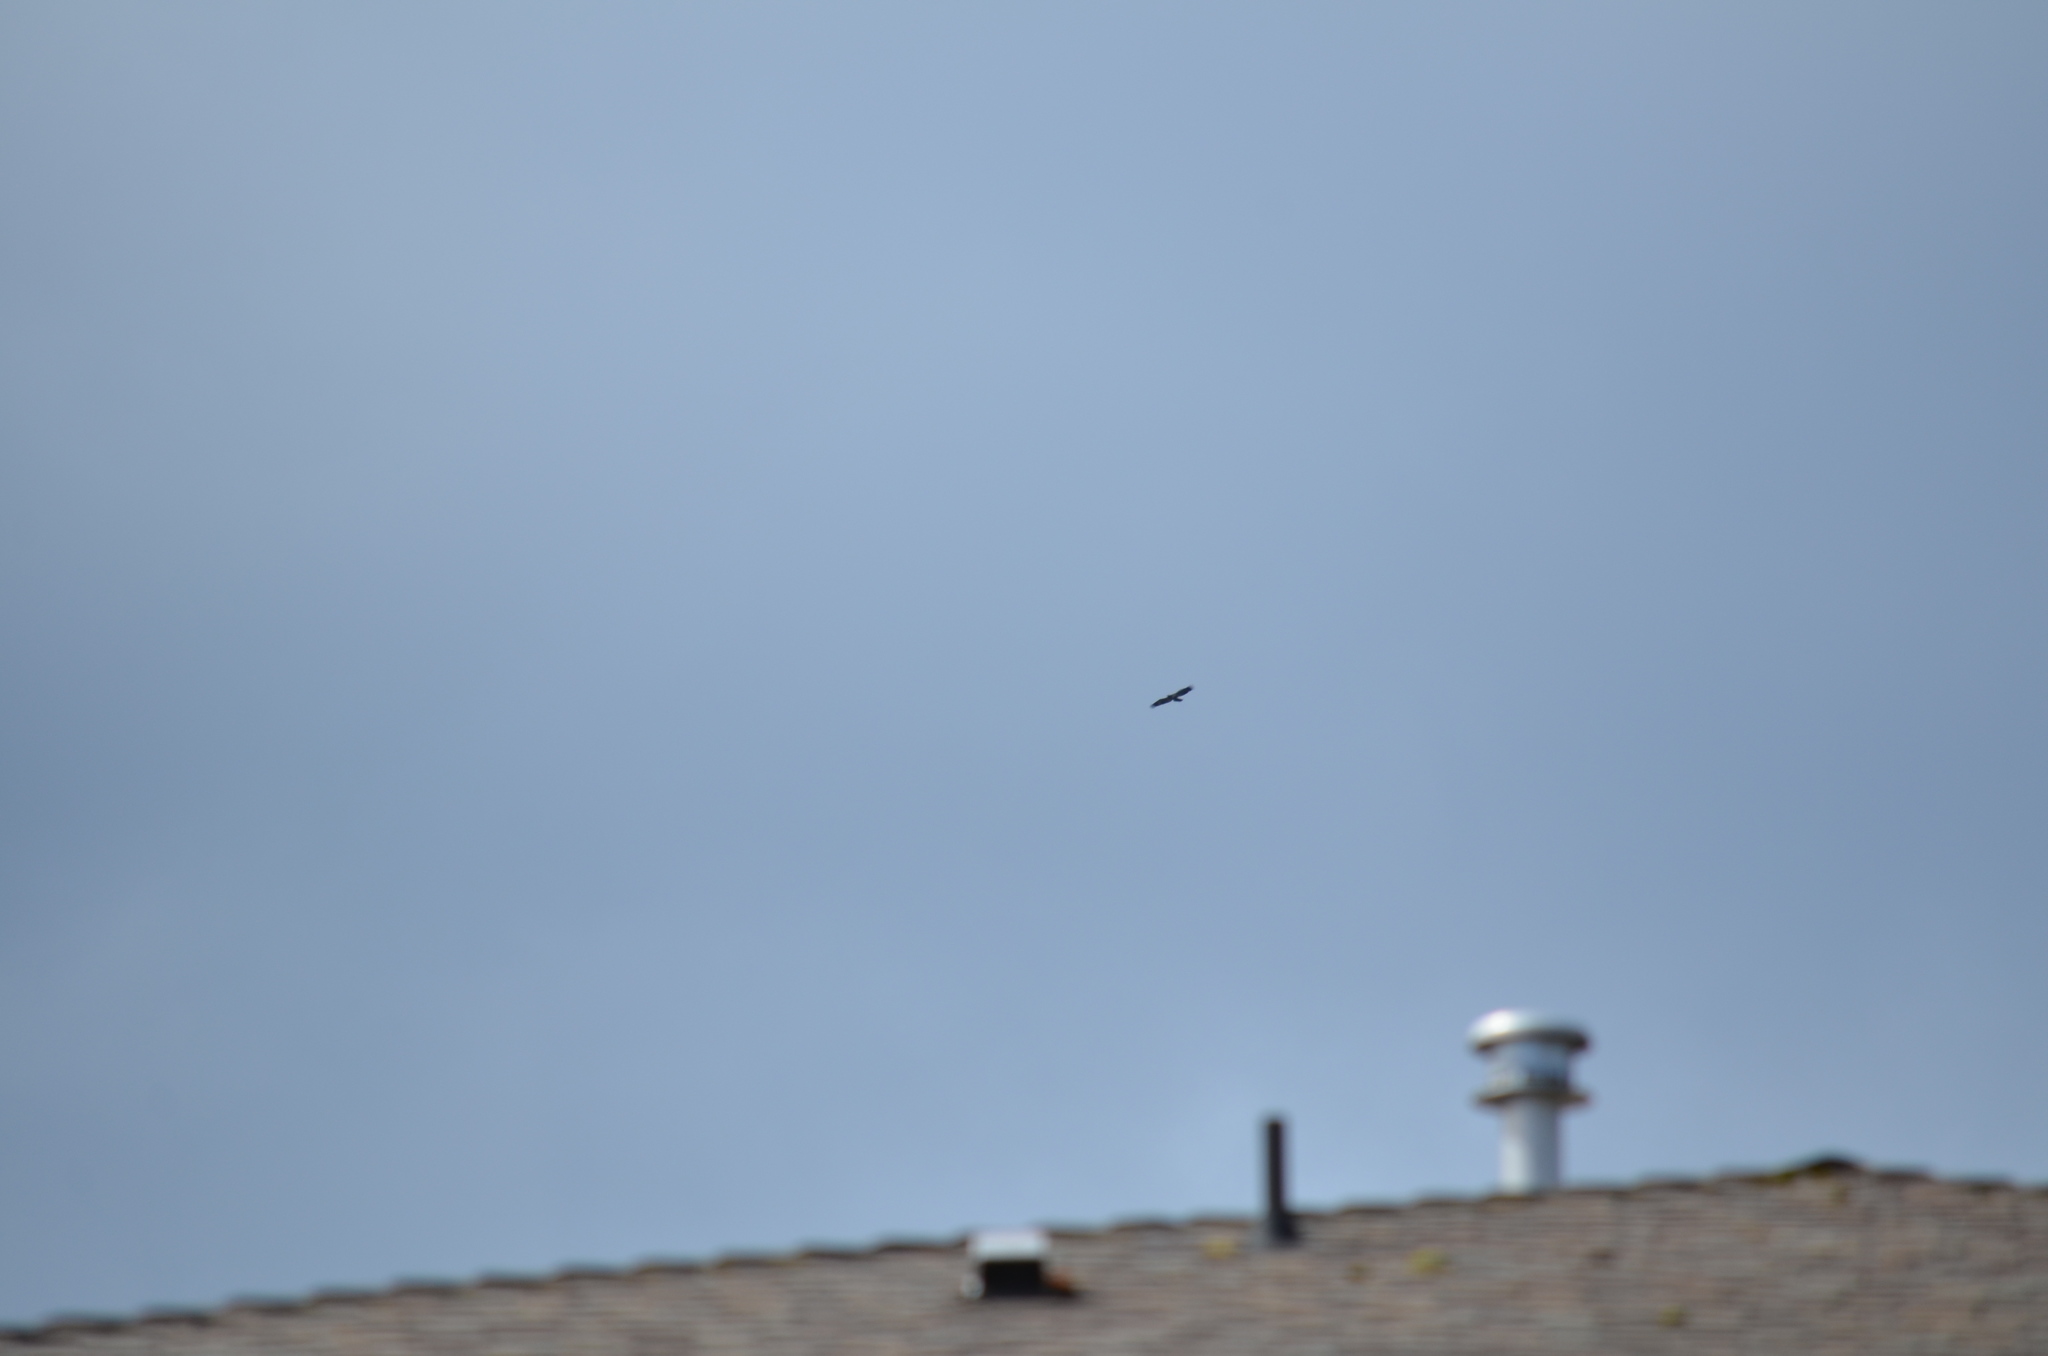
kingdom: Animalia
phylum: Chordata
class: Aves
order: Accipitriformes
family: Accipitridae
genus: Haliaeetus
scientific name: Haliaeetus leucocephalus
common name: Bald eagle
